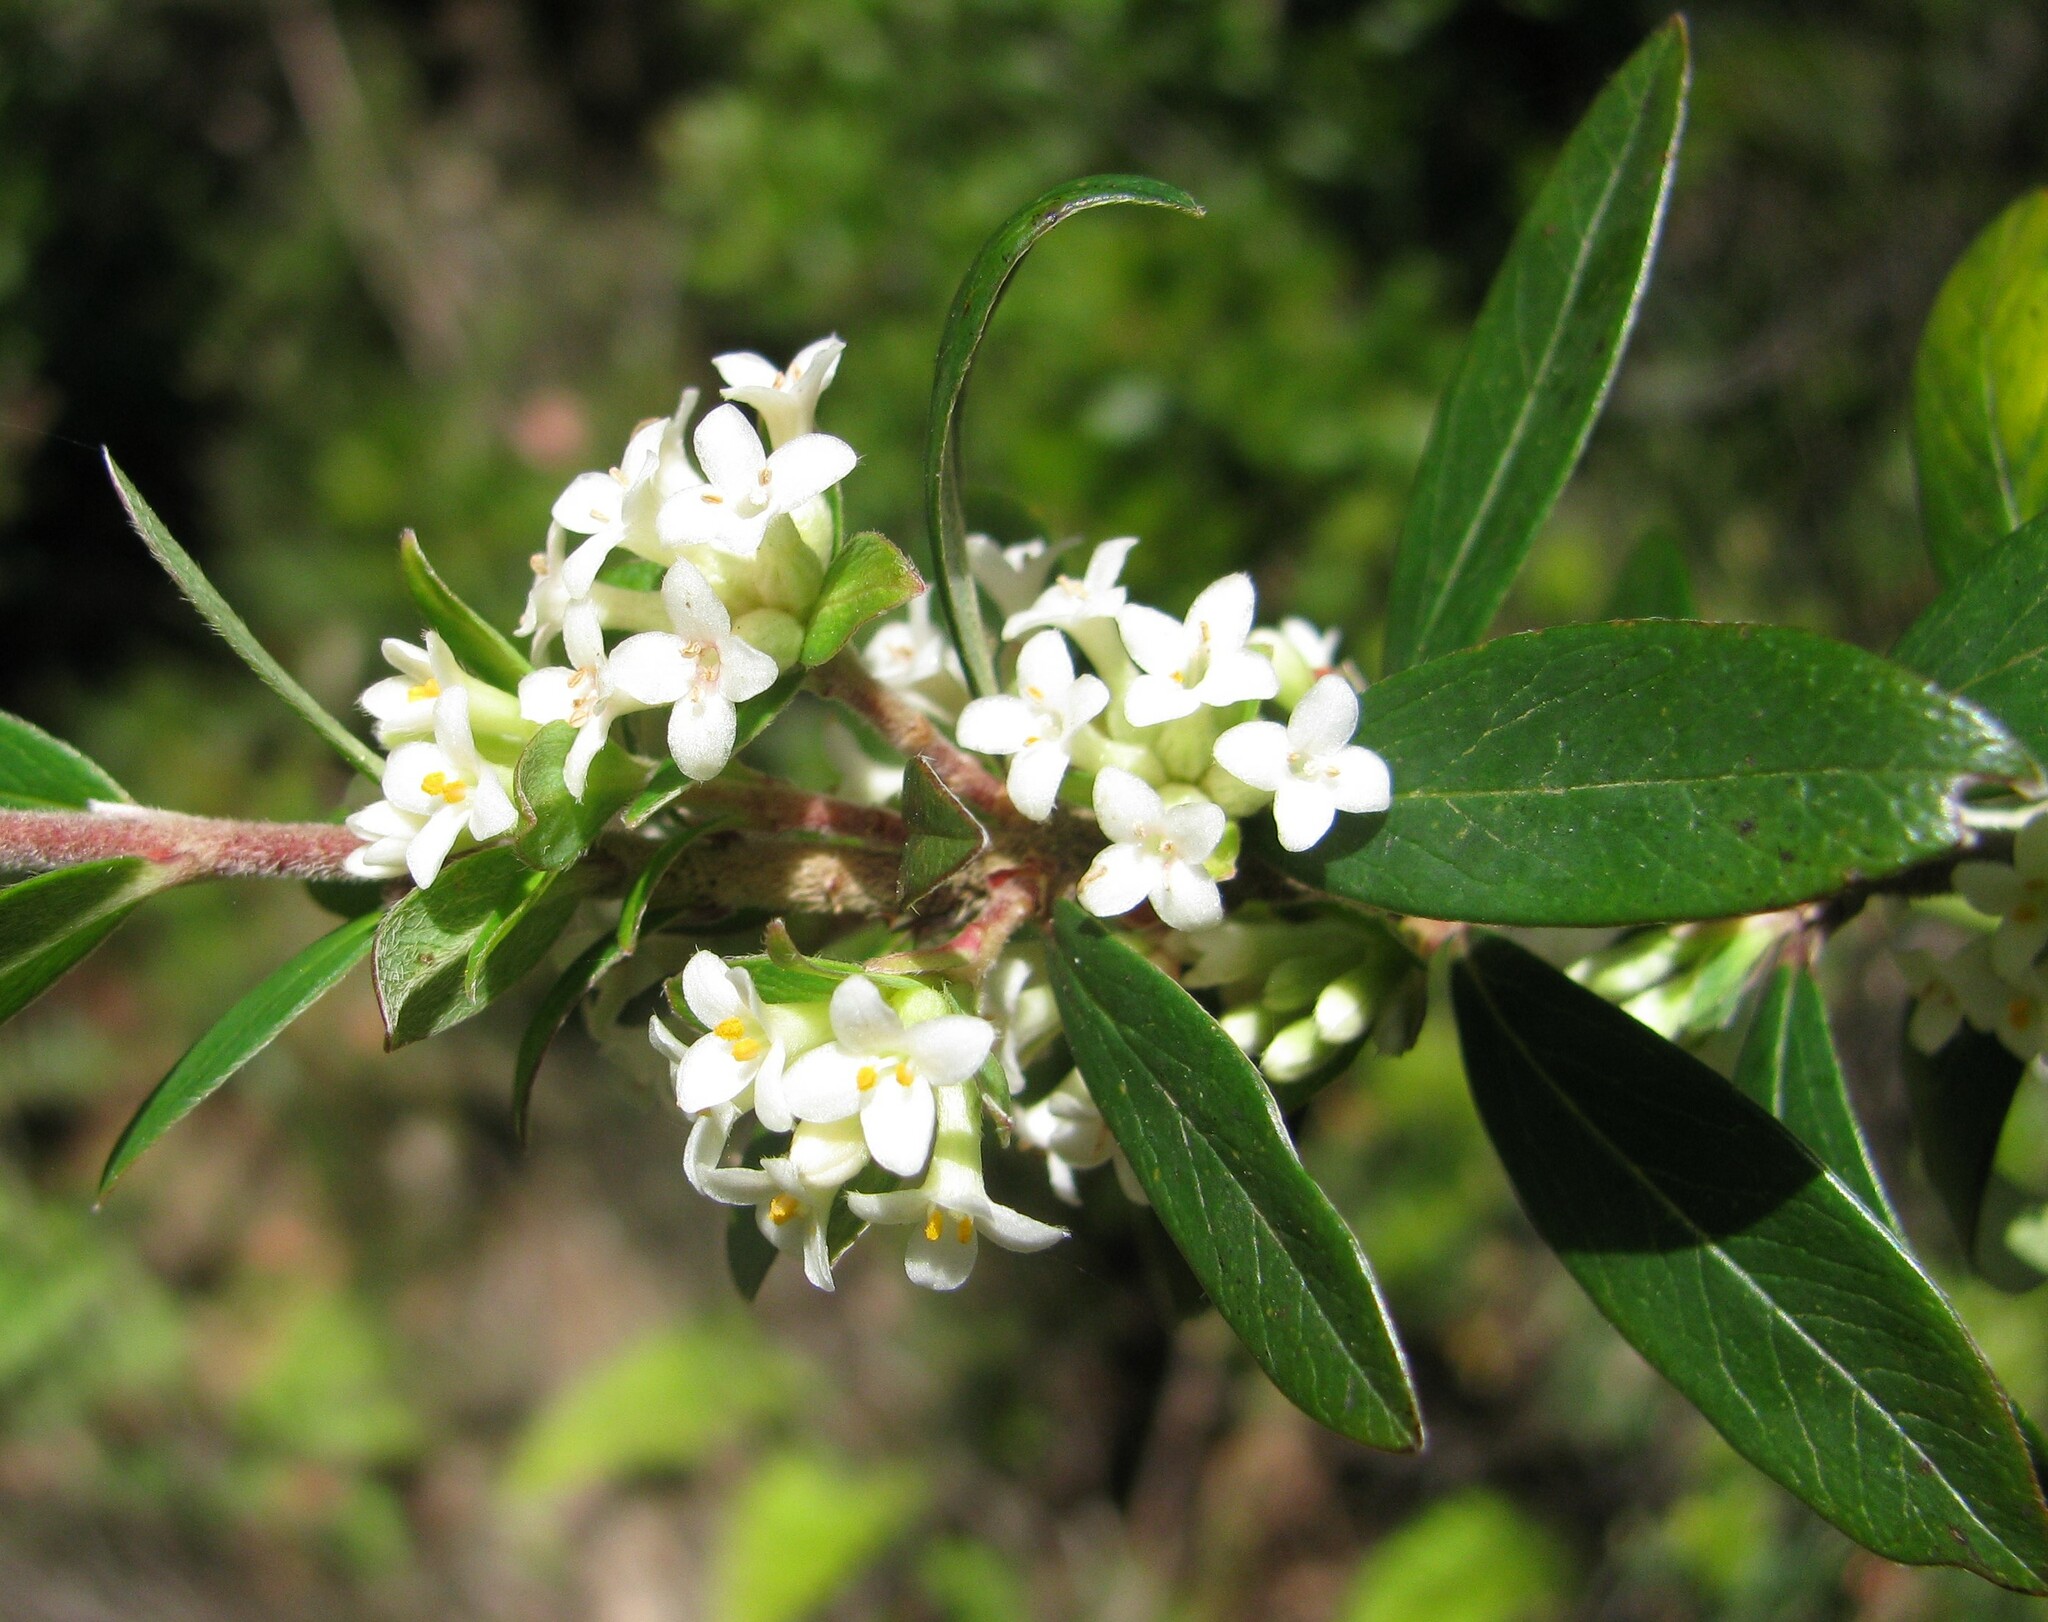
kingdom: Plantae
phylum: Tracheophyta
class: Magnoliopsida
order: Malvales
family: Thymelaeaceae
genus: Pimelea
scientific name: Pimelea drupacea
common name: Cherry riceflower
